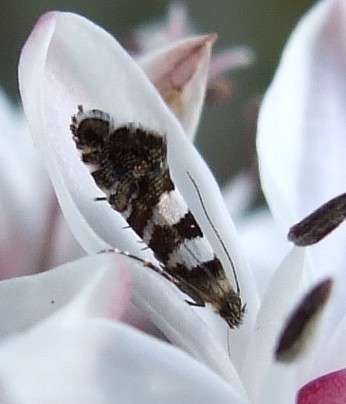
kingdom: Plantae
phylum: Tracheophyta
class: Liliopsida
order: Liliales
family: Colchicaceae
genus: Burchardia
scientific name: Burchardia umbellata
